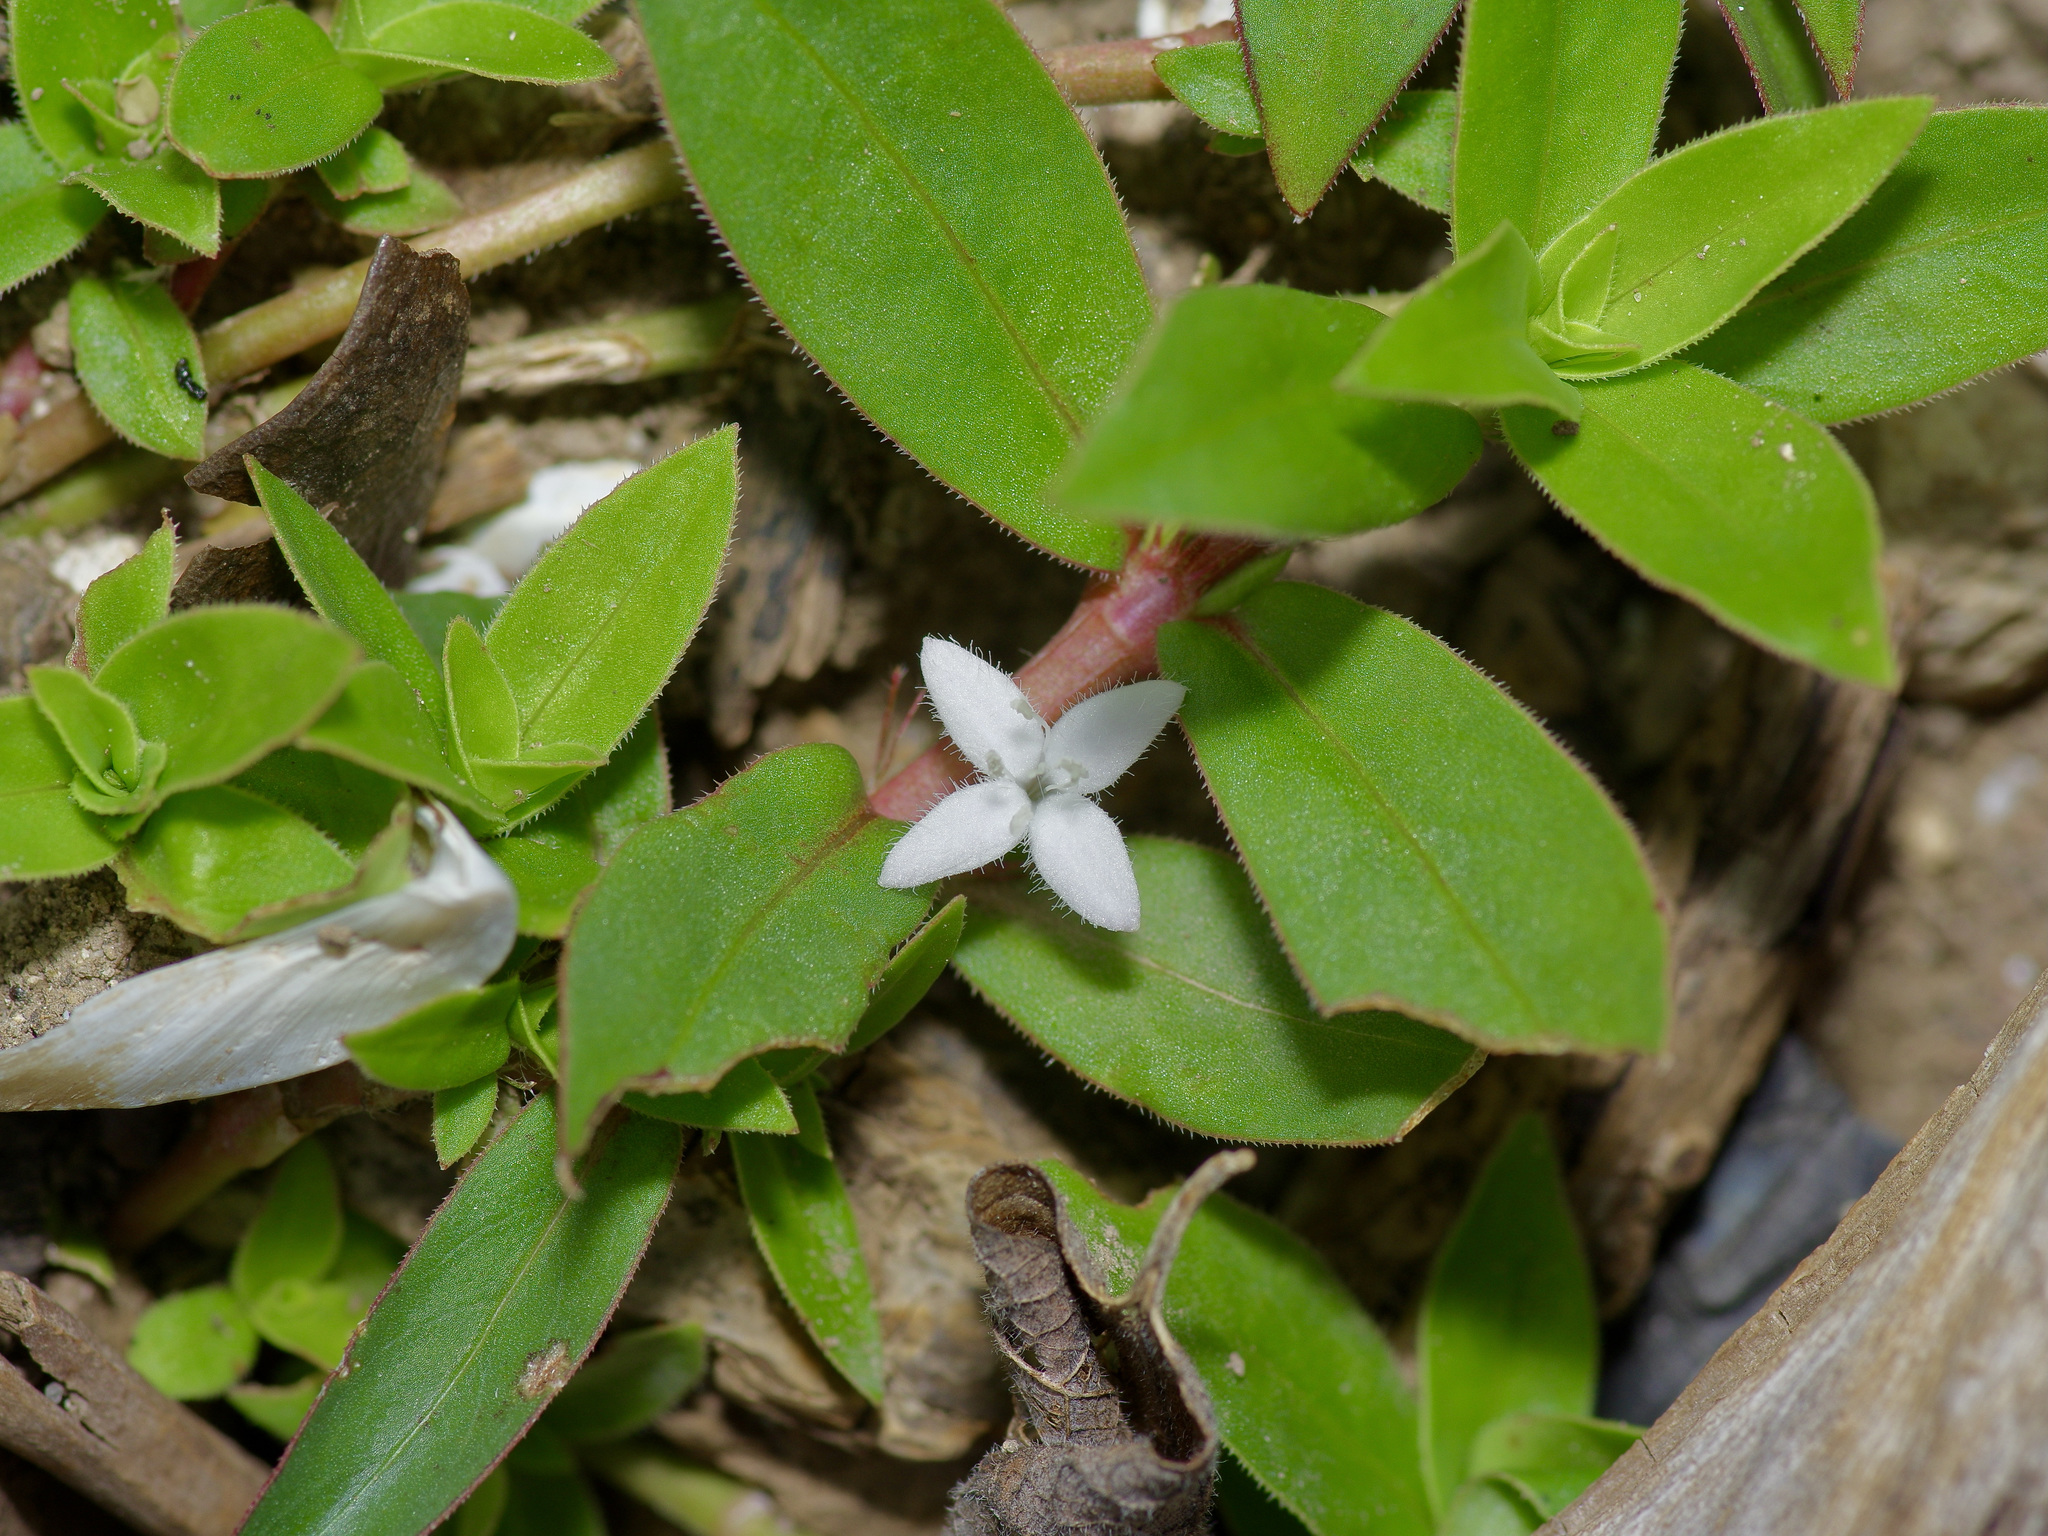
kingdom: Plantae
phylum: Tracheophyta
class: Magnoliopsida
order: Gentianales
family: Rubiaceae
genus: Diodia
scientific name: Diodia virginiana
